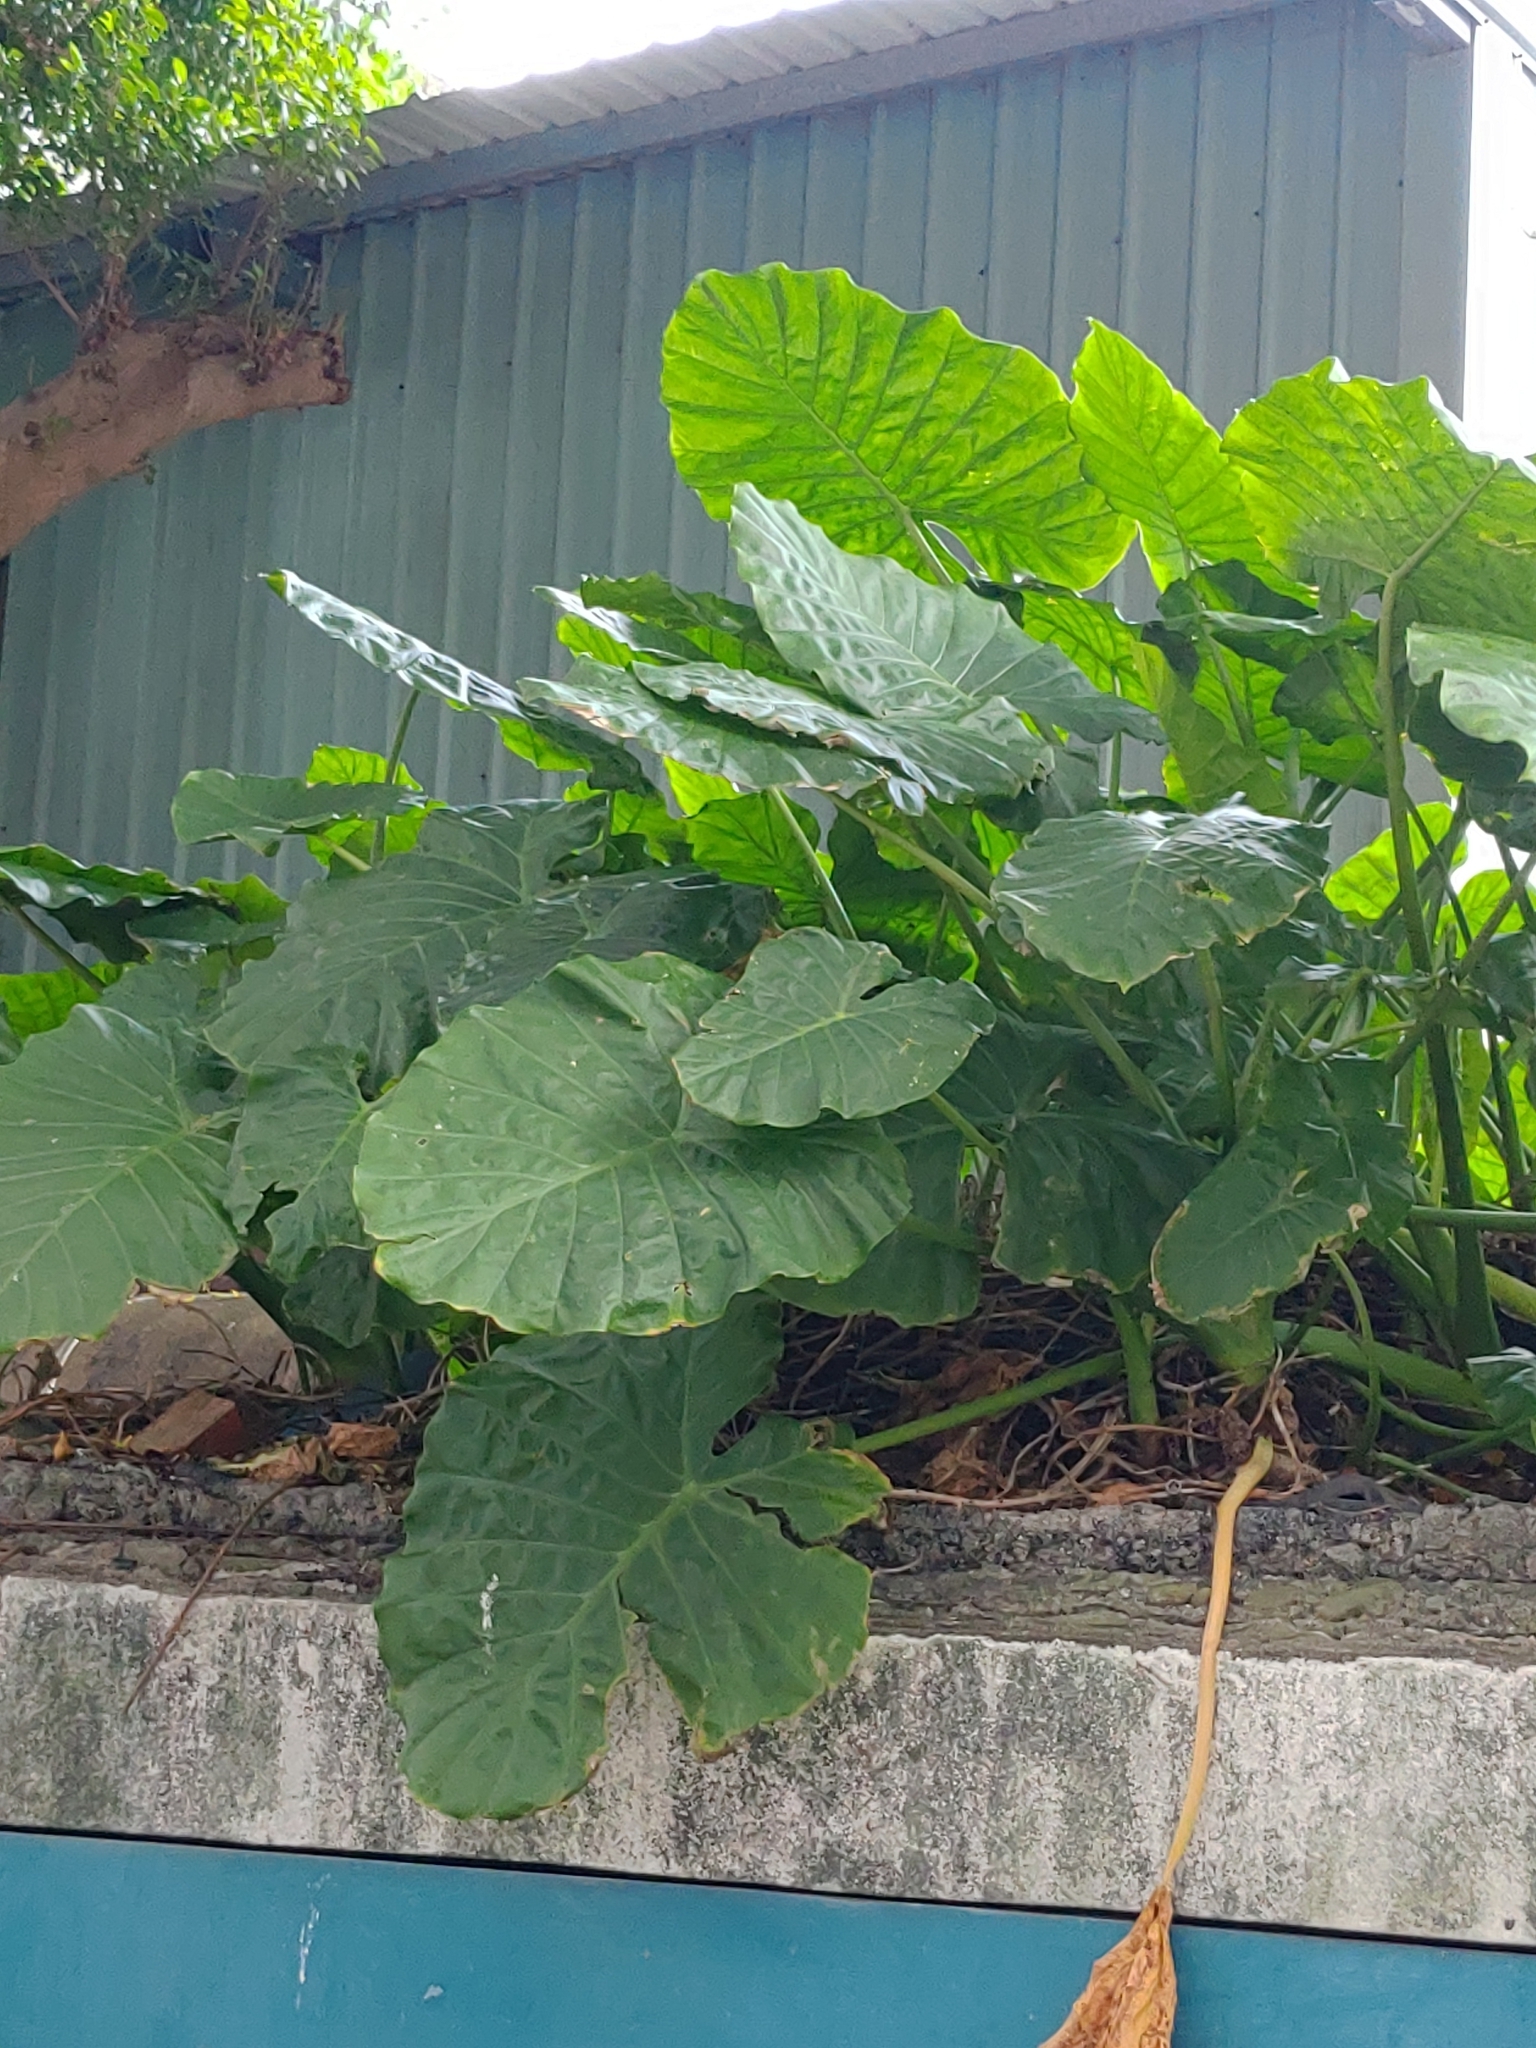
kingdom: Plantae
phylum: Tracheophyta
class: Liliopsida
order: Alismatales
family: Araceae
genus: Alocasia
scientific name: Alocasia odora
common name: Asian taro
